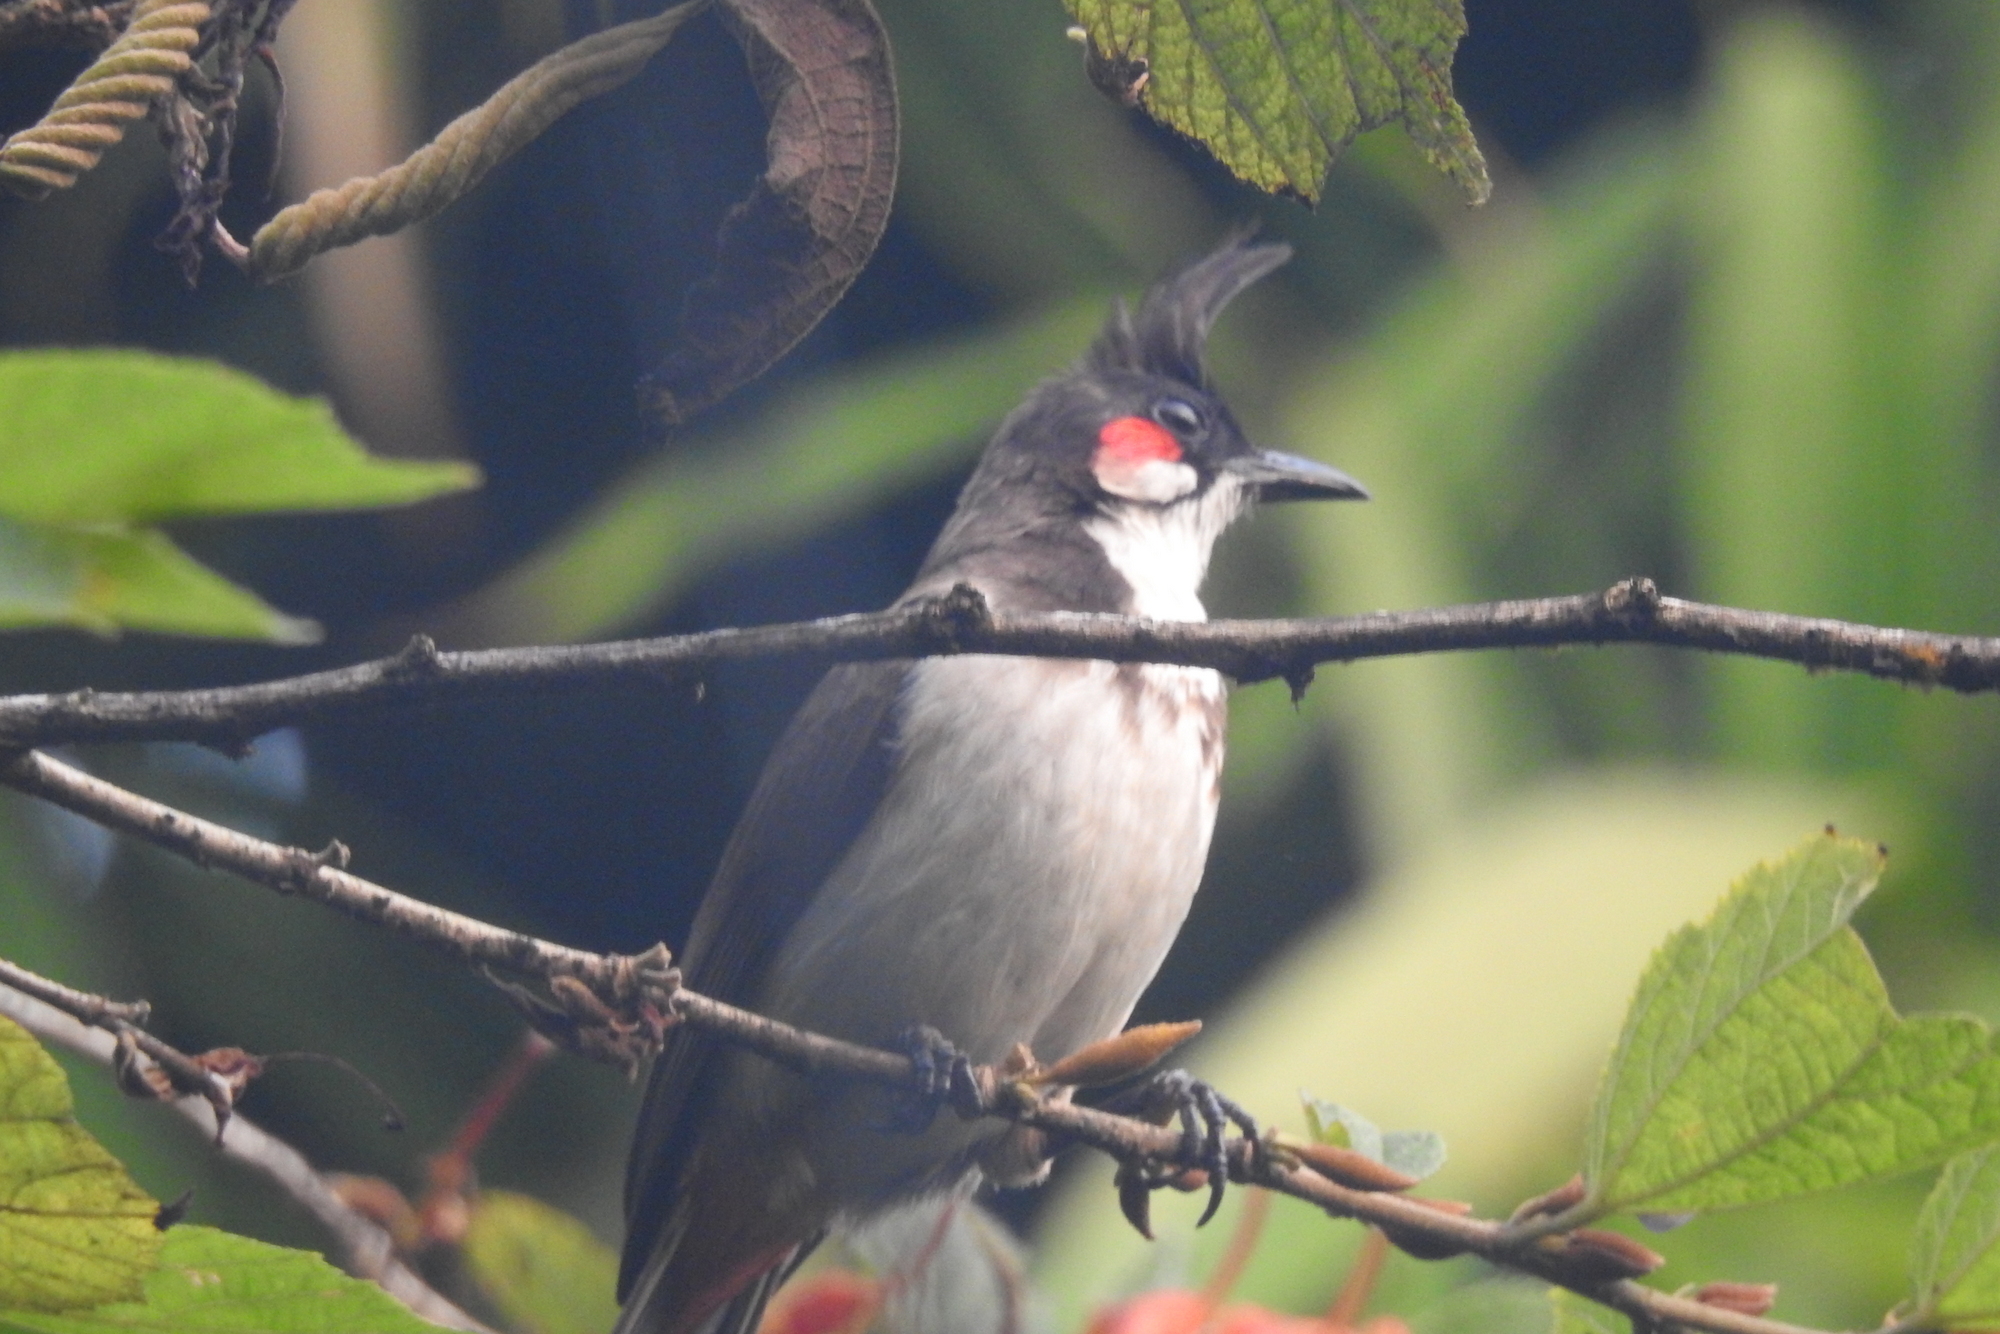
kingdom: Animalia
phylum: Chordata
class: Aves
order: Passeriformes
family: Pycnonotidae
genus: Pycnonotus
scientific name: Pycnonotus jocosus
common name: Red-whiskered bulbul
